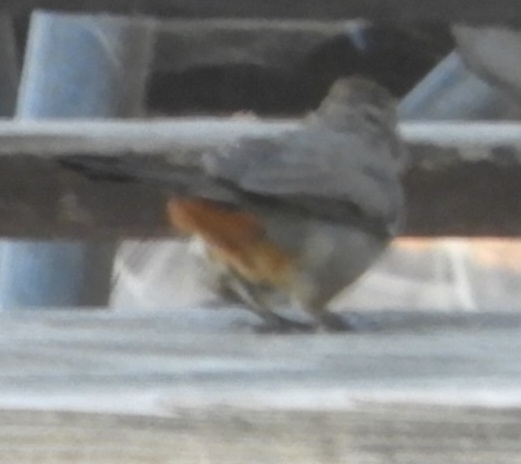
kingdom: Animalia
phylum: Chordata
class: Aves
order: Passeriformes
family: Passerellidae
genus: Melozone
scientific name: Melozone crissalis
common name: California towhee
